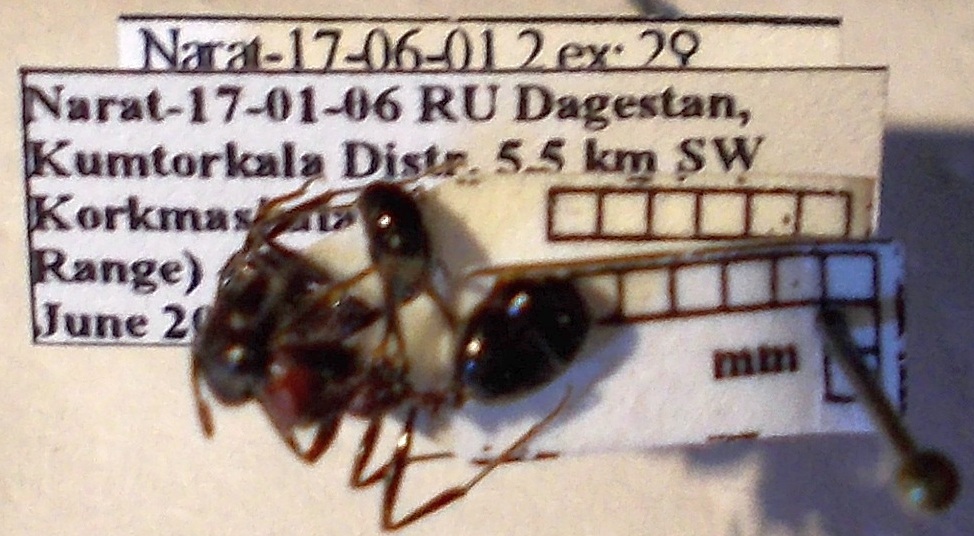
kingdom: Animalia
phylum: Arthropoda
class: Insecta
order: Hymenoptera
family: Formicidae
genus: Messor
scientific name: Messor denticulatus
